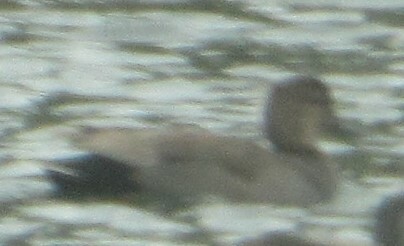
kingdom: Animalia
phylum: Chordata
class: Aves
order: Anseriformes
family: Anatidae
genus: Mareca
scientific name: Mareca strepera
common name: Gadwall
